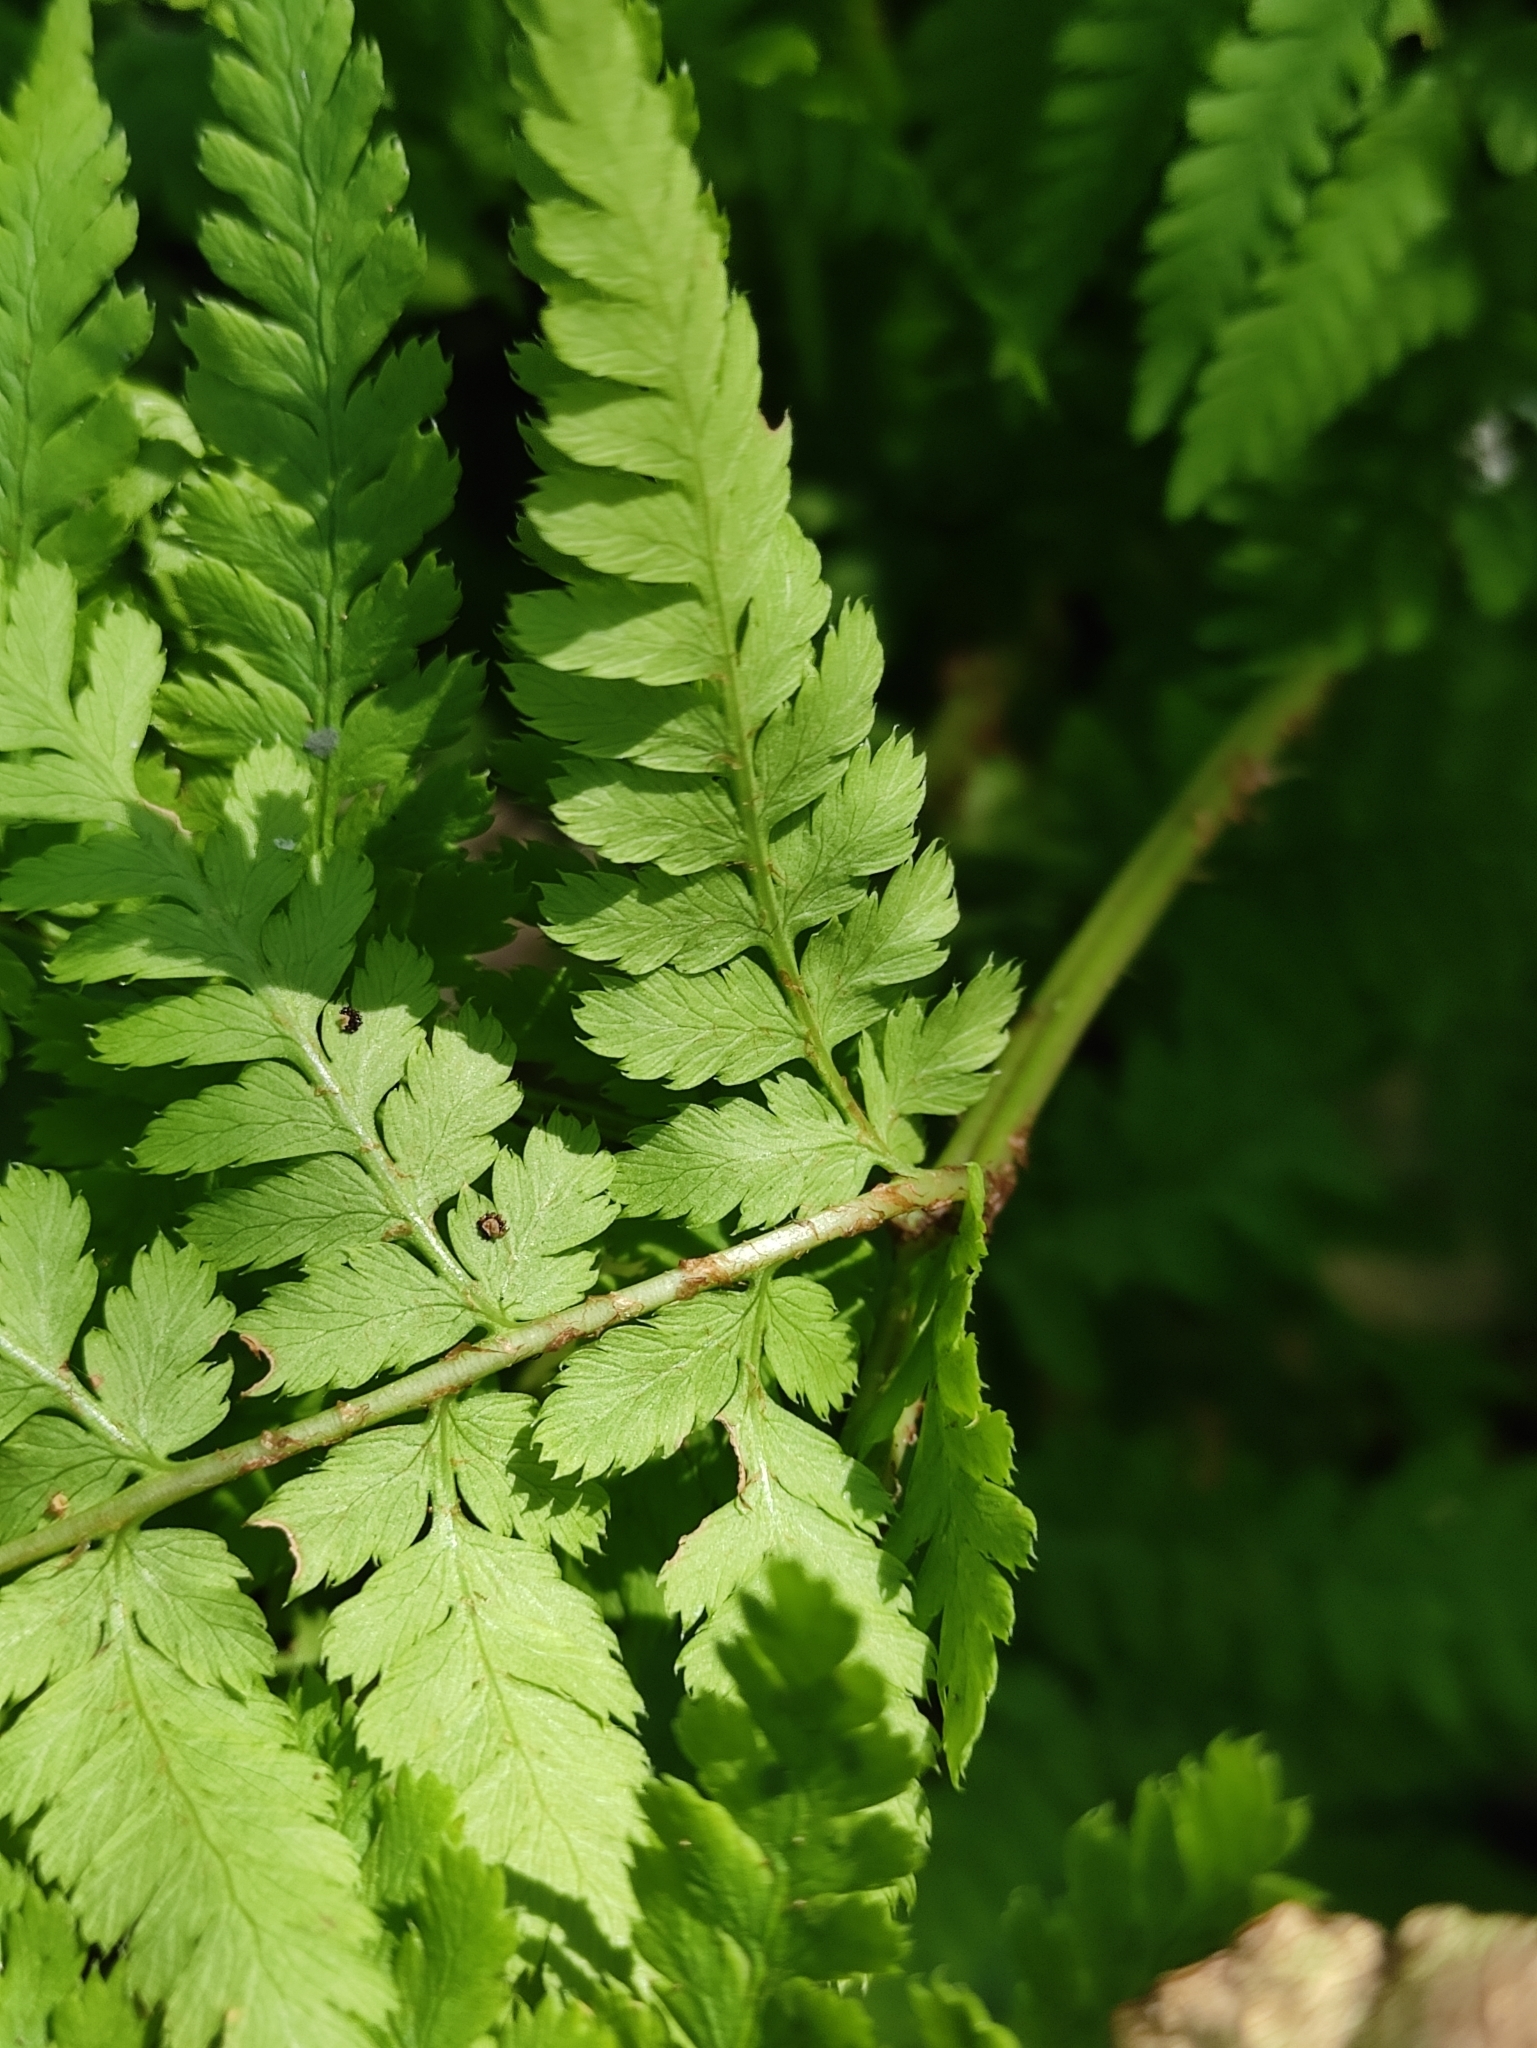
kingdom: Plantae
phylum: Tracheophyta
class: Polypodiopsida
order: Polypodiales
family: Dryopteridaceae
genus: Dryopteris
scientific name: Dryopteris expansa
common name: Northern buckler fern
